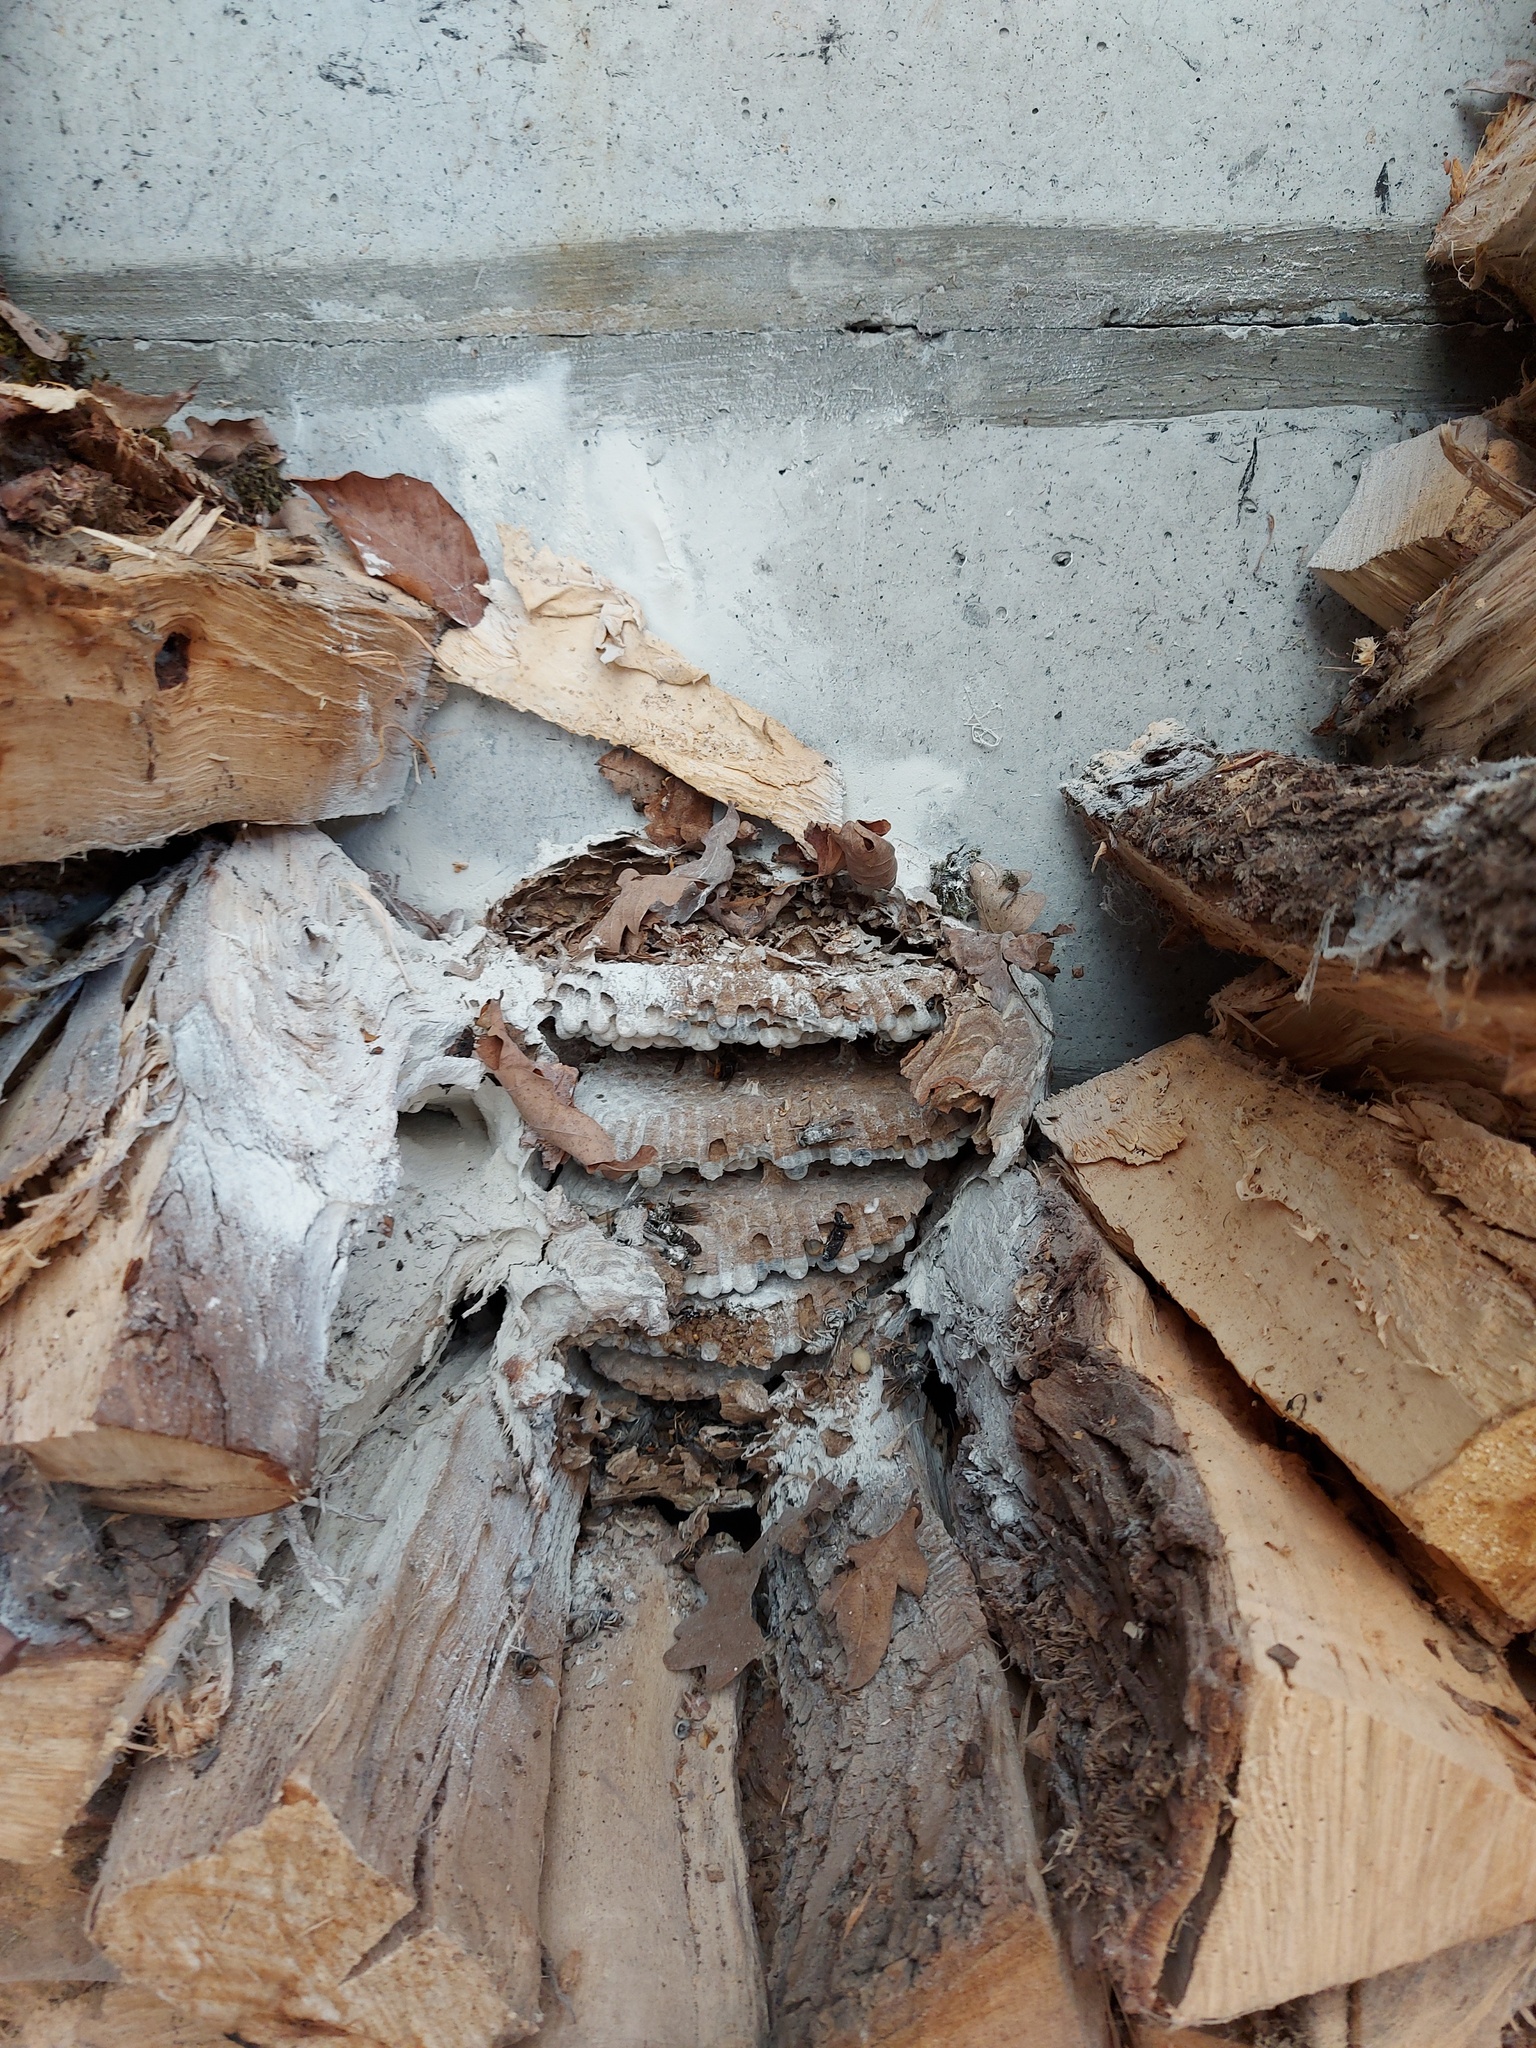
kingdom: Animalia
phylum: Arthropoda
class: Insecta
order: Hymenoptera
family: Vespidae
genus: Vespa
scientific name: Vespa velutina
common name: Asian hornet
